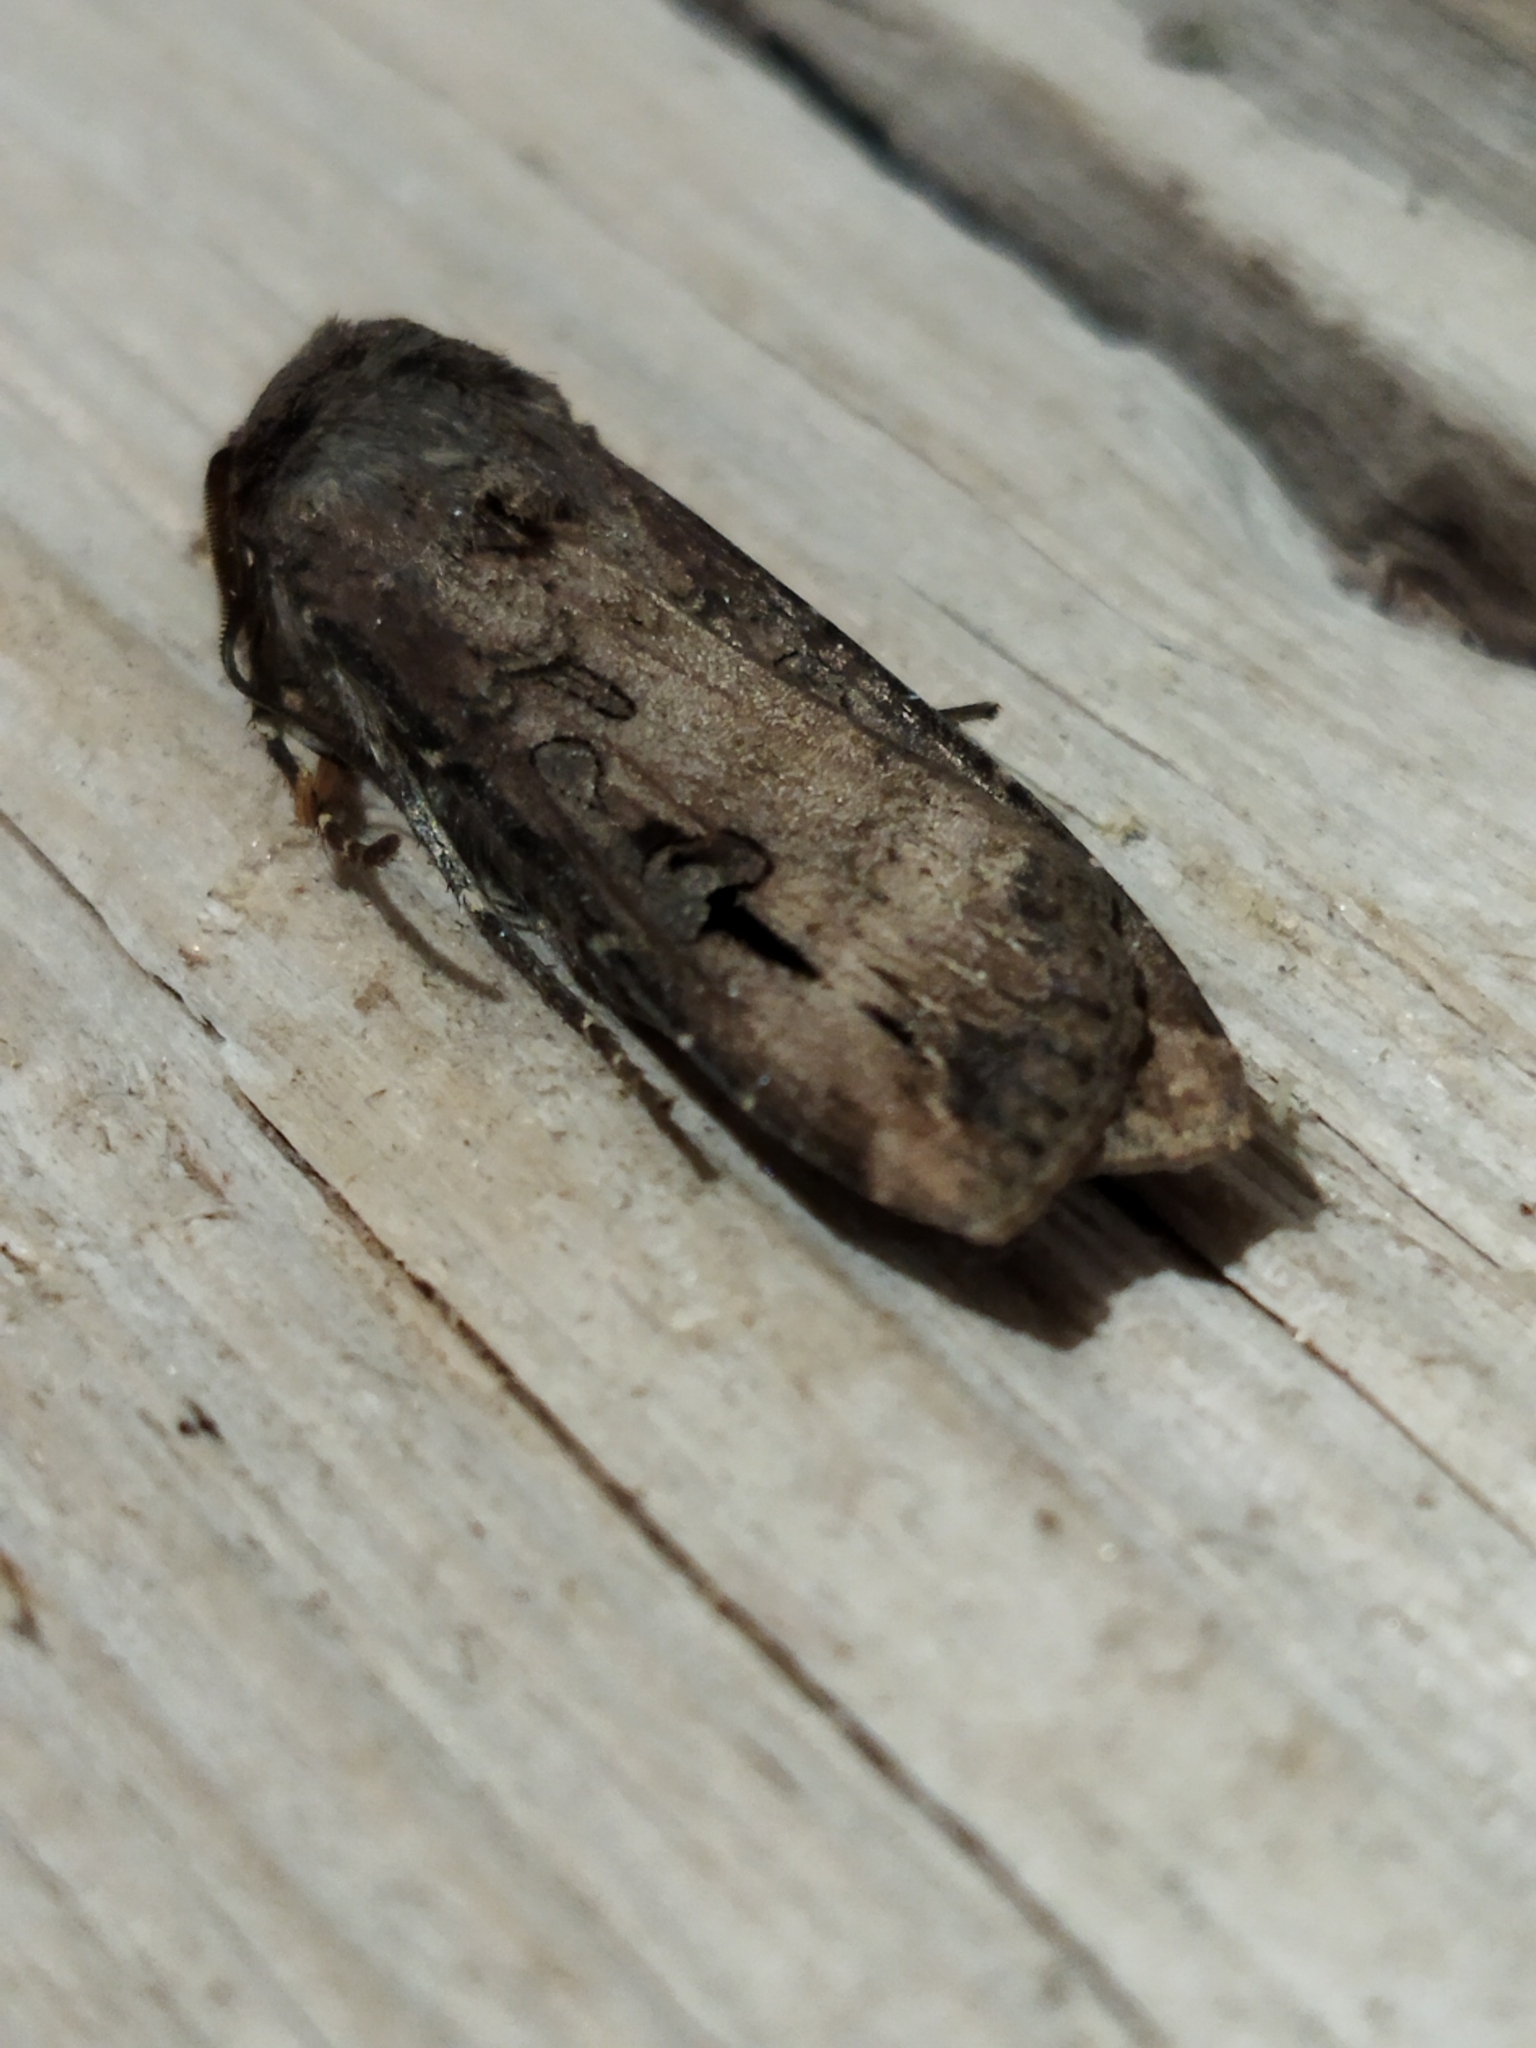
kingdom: Animalia
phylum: Arthropoda
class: Insecta
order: Lepidoptera
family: Noctuidae
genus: Agrotis
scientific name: Agrotis ipsilon
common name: Dark sword-grass
